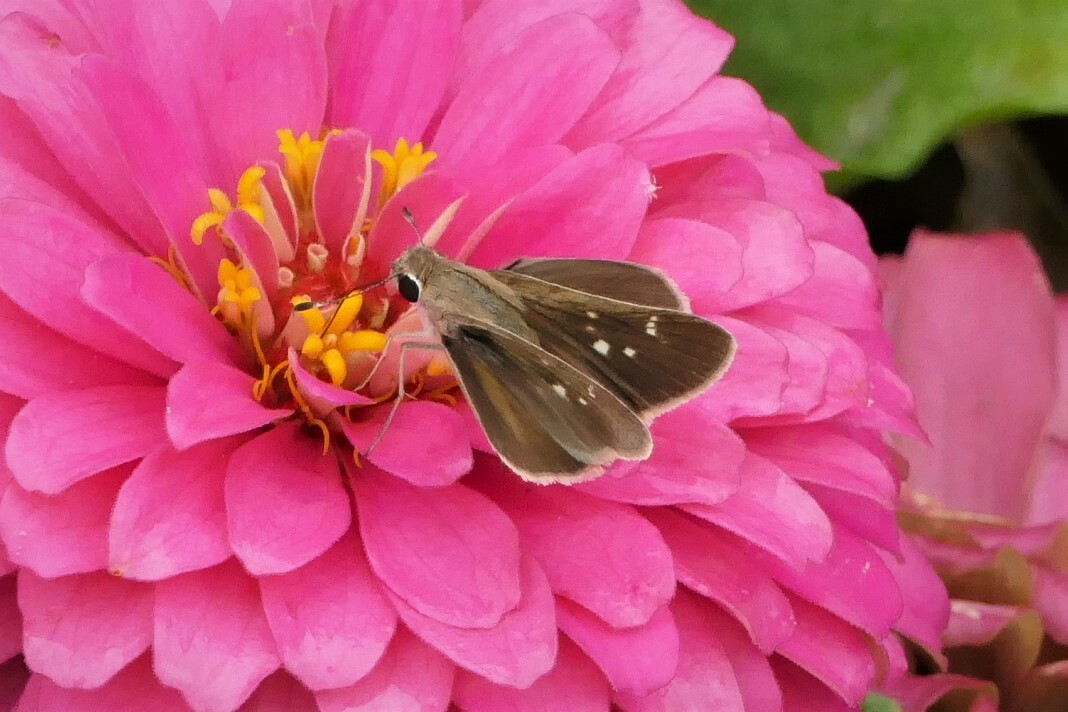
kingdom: Animalia
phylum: Arthropoda
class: Insecta
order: Lepidoptera
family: Hesperiidae
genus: Lerodea
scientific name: Lerodea eufala
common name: Eufala skipper
